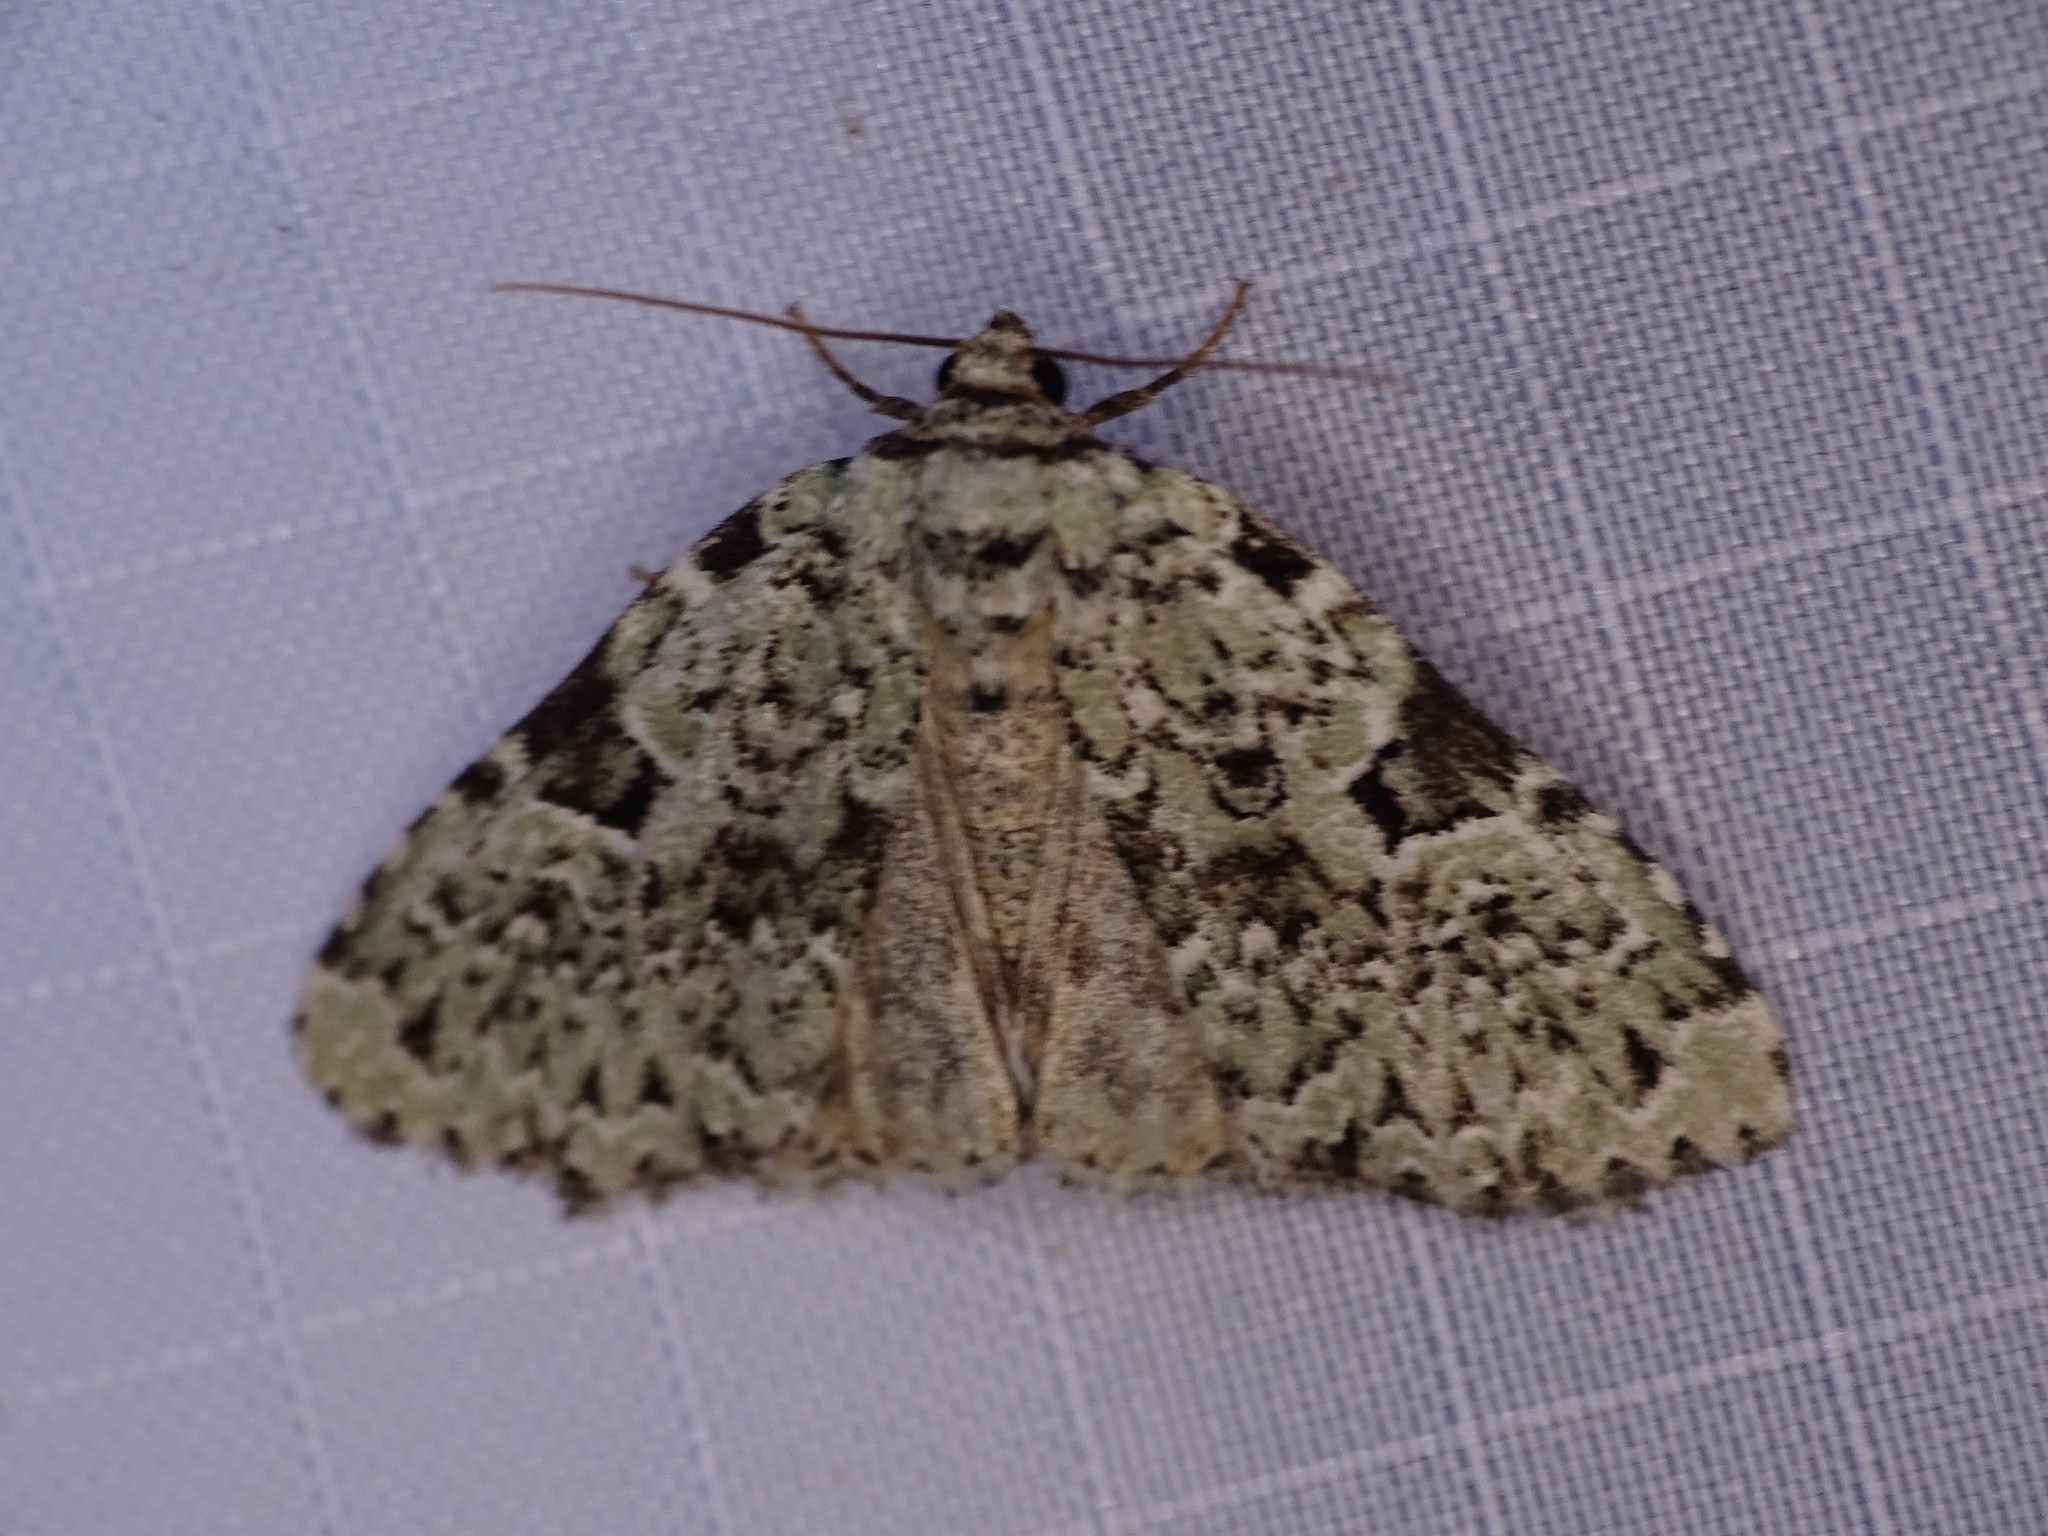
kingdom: Animalia
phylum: Arthropoda
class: Insecta
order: Lepidoptera
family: Noctuidae
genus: Leuconycta
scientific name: Leuconycta diphteroides
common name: Green leuconycta moth
